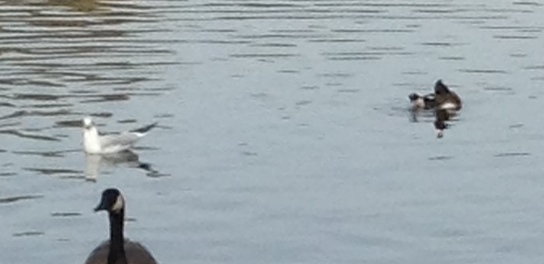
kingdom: Animalia
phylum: Chordata
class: Aves
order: Charadriiformes
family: Laridae
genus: Chroicocephalus
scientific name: Chroicocephalus ridibundus
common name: Black-headed gull
